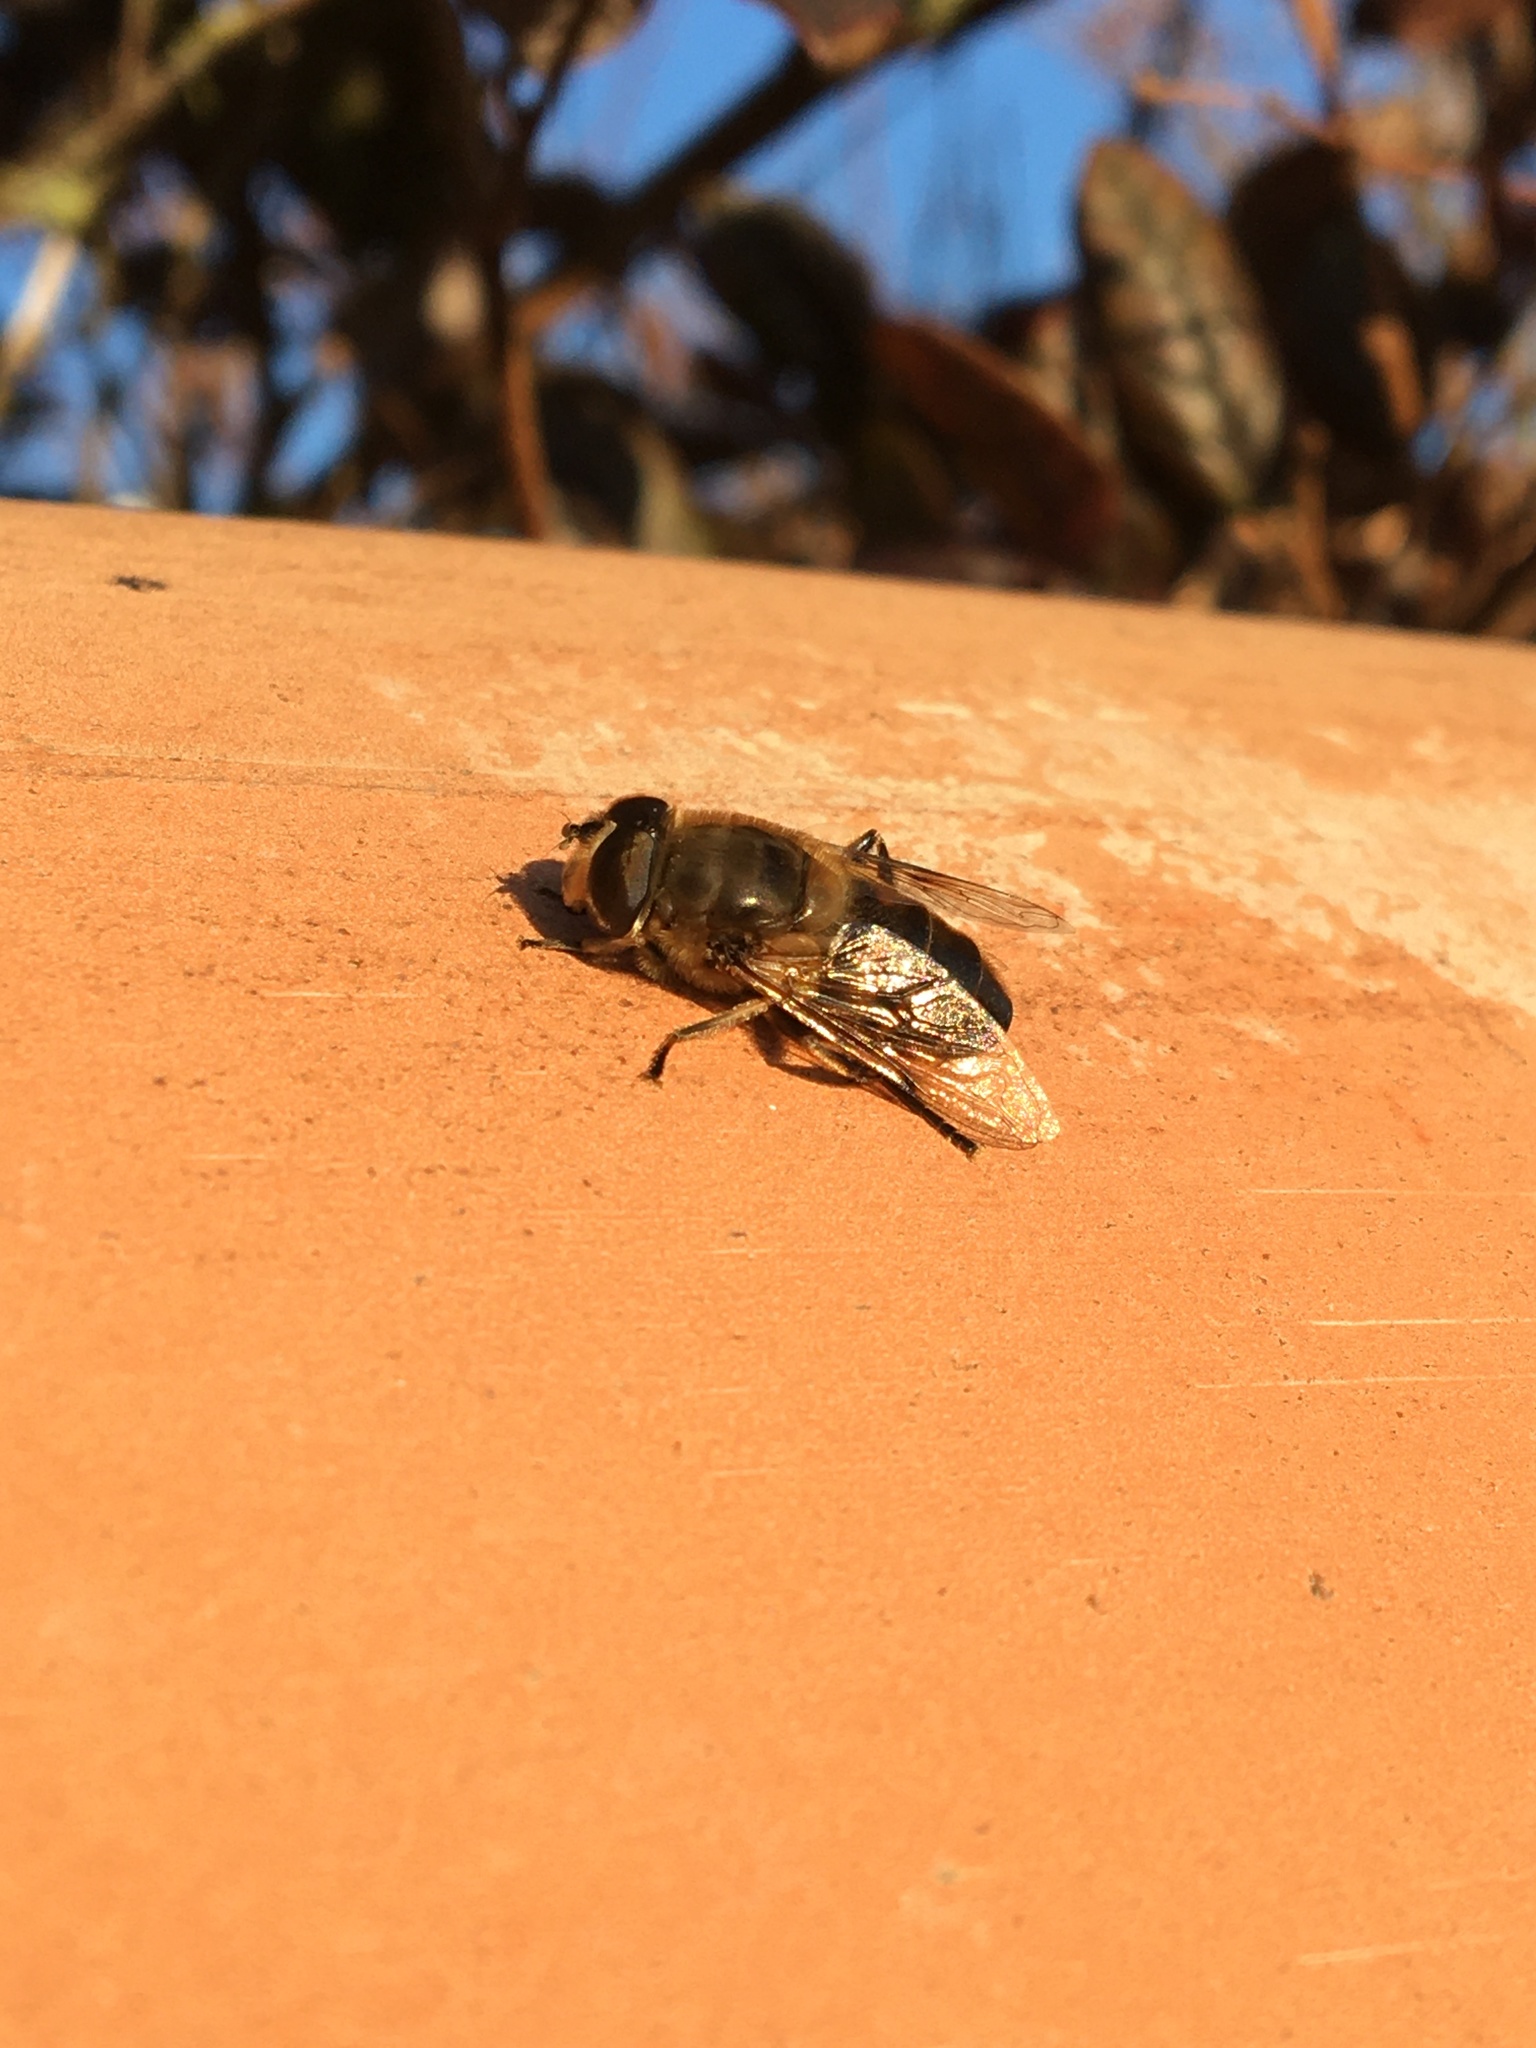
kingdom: Animalia
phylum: Arthropoda
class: Insecta
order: Diptera
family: Syrphidae
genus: Eristalis
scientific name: Eristalis tenax
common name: Drone fly
